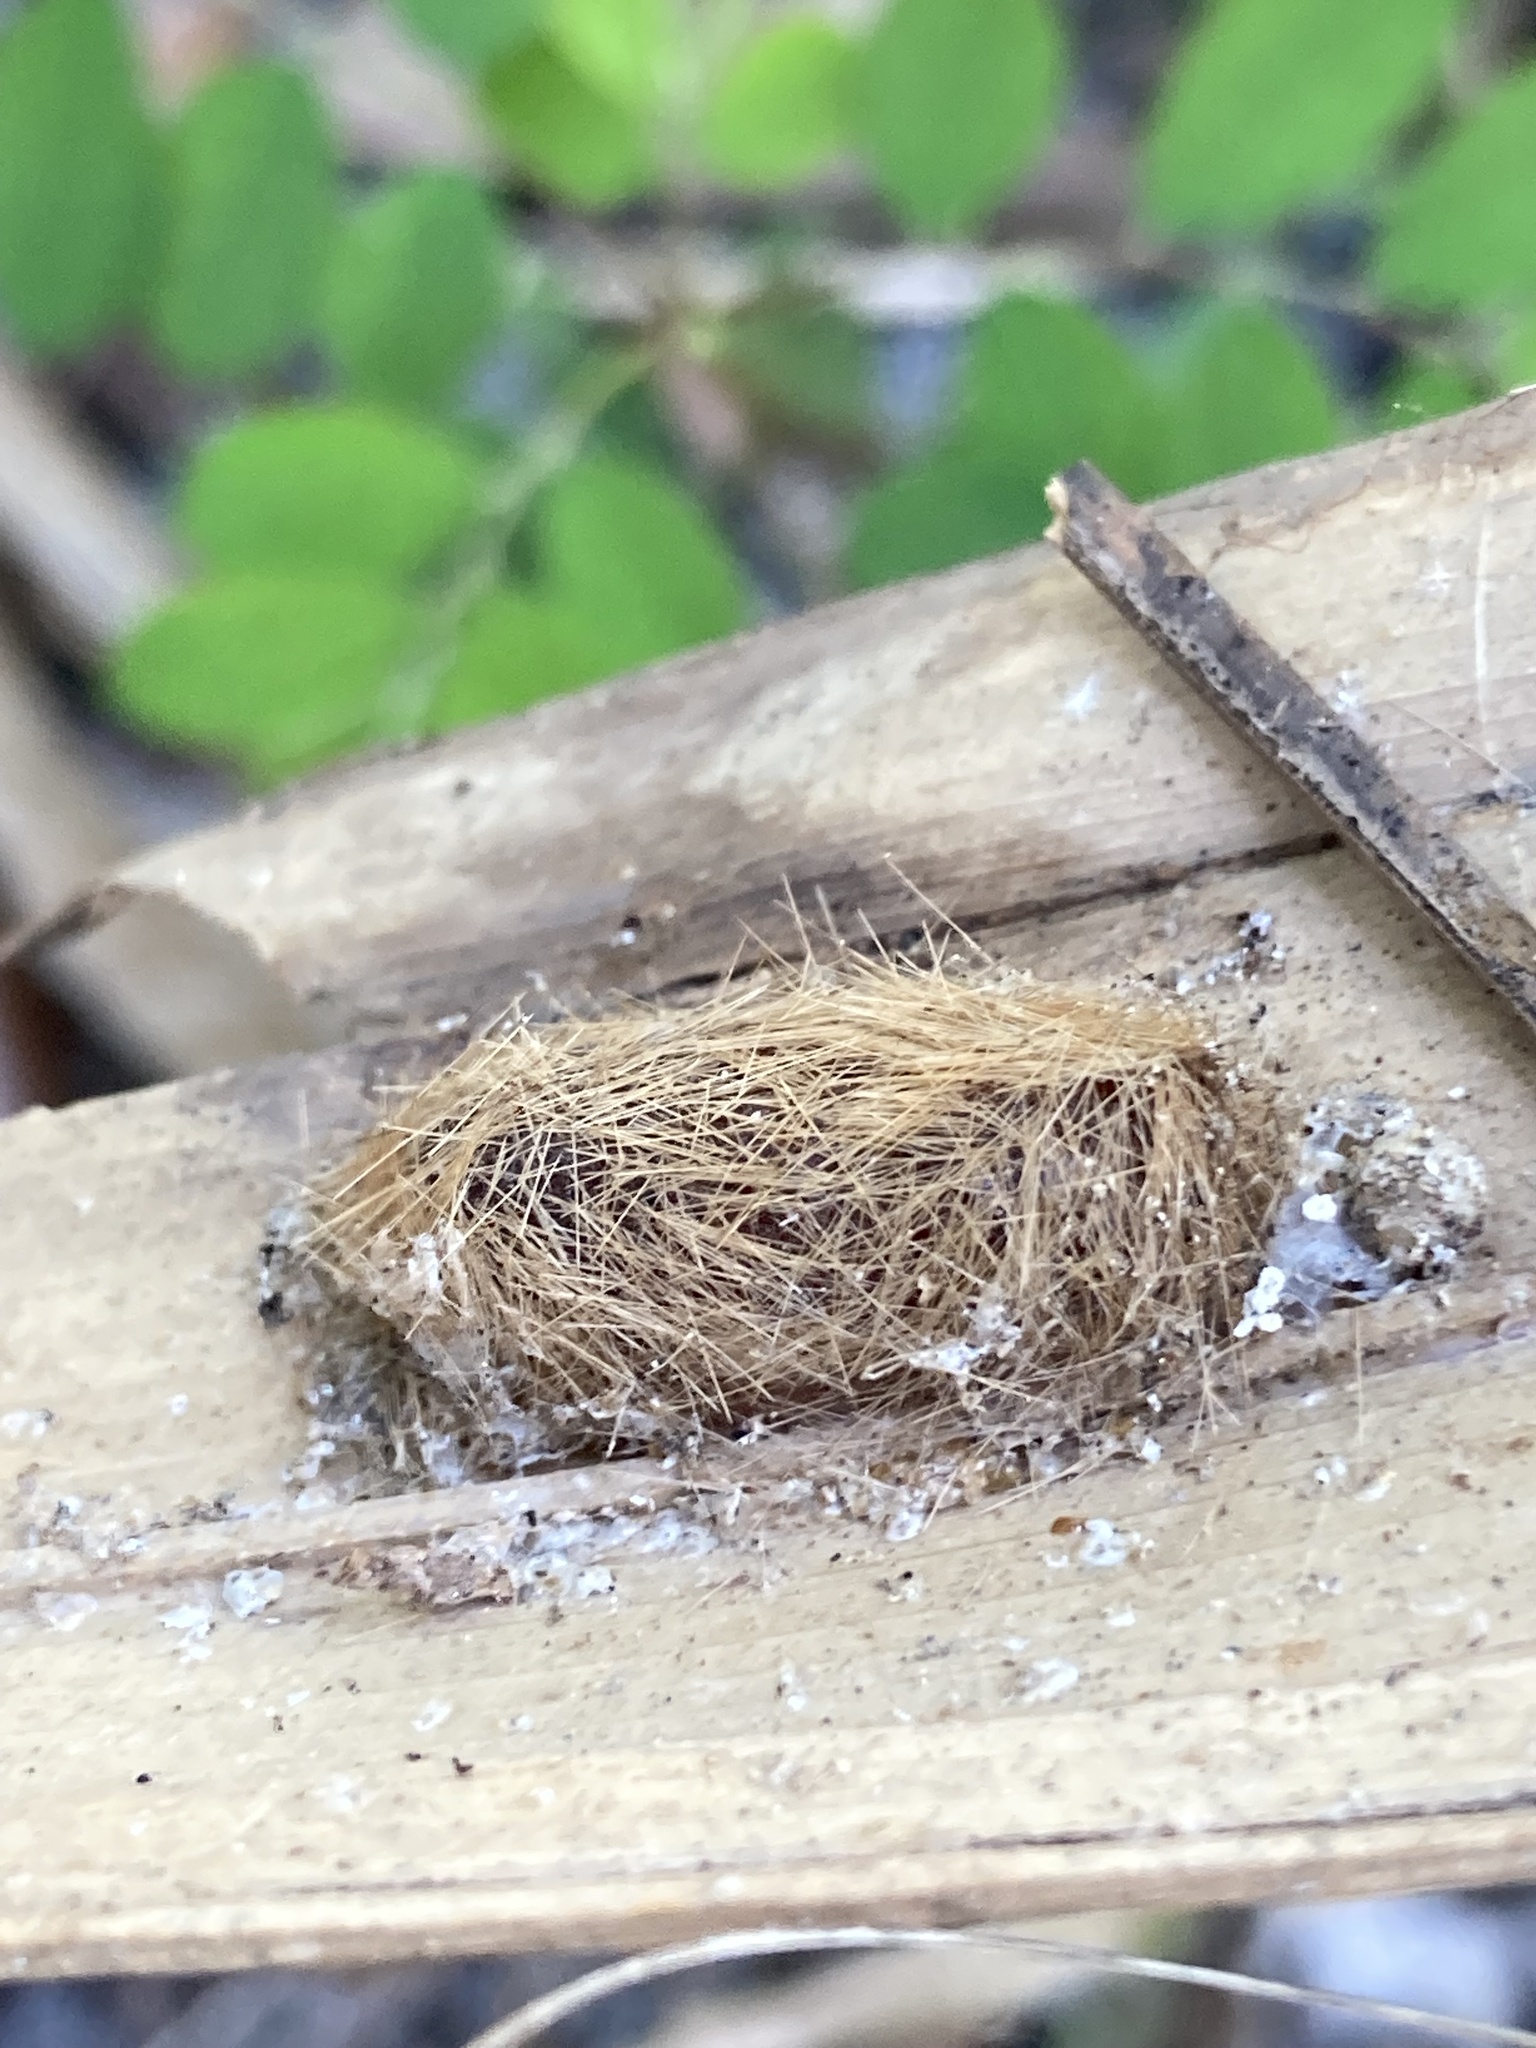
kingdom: Animalia
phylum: Arthropoda
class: Insecta
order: Lepidoptera
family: Erebidae
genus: Lymire
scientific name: Lymire edwardsii
